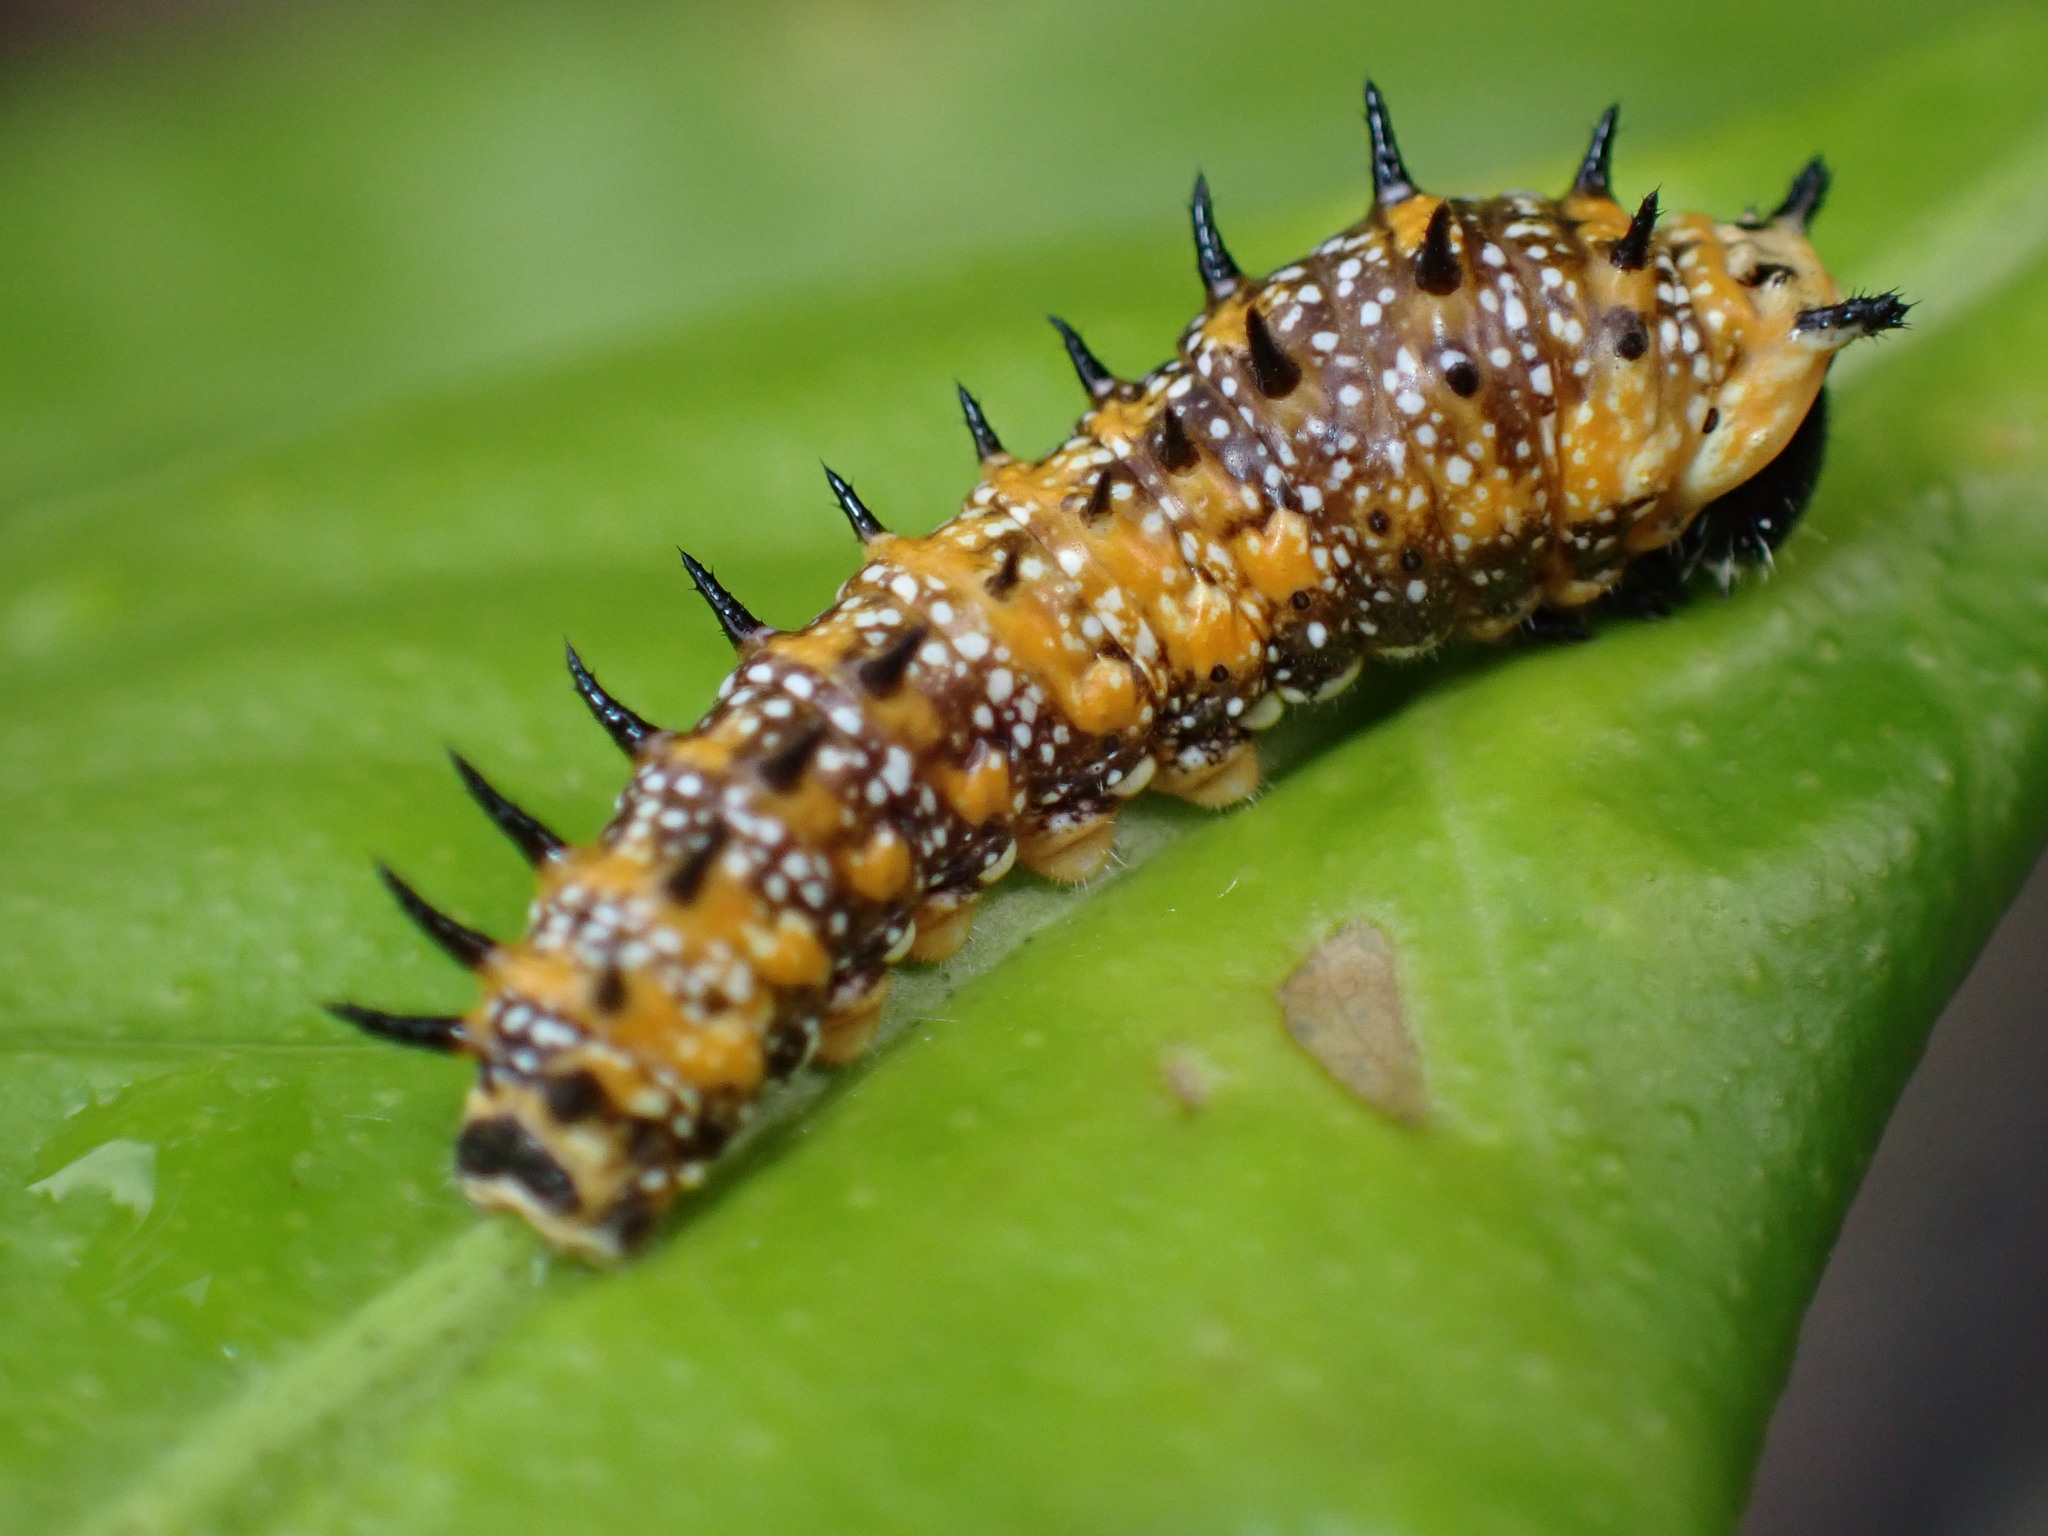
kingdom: Animalia
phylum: Arthropoda
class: Insecta
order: Lepidoptera
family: Papilionidae
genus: Papilio
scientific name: Papilio anactus
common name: Dingy swallowtail
